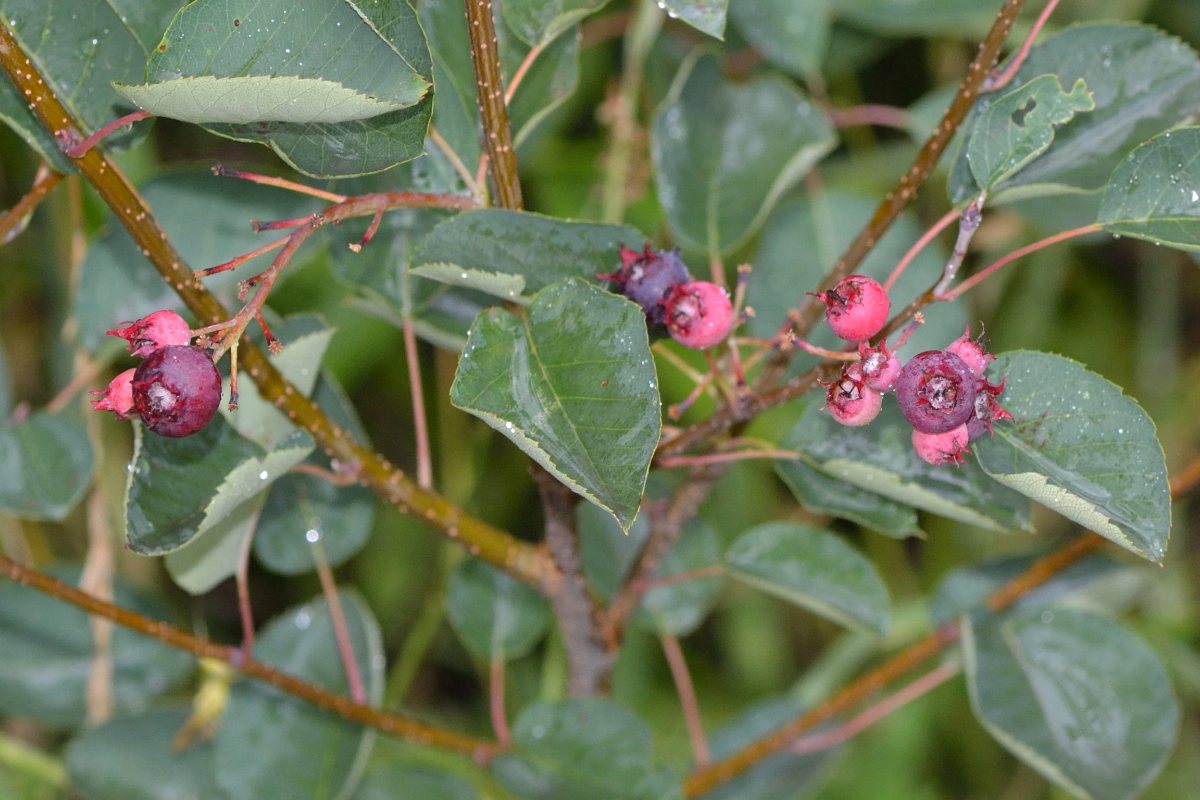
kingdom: Plantae
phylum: Tracheophyta
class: Magnoliopsida
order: Rosales
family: Rosaceae
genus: Amelanchier
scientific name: Amelanchier
